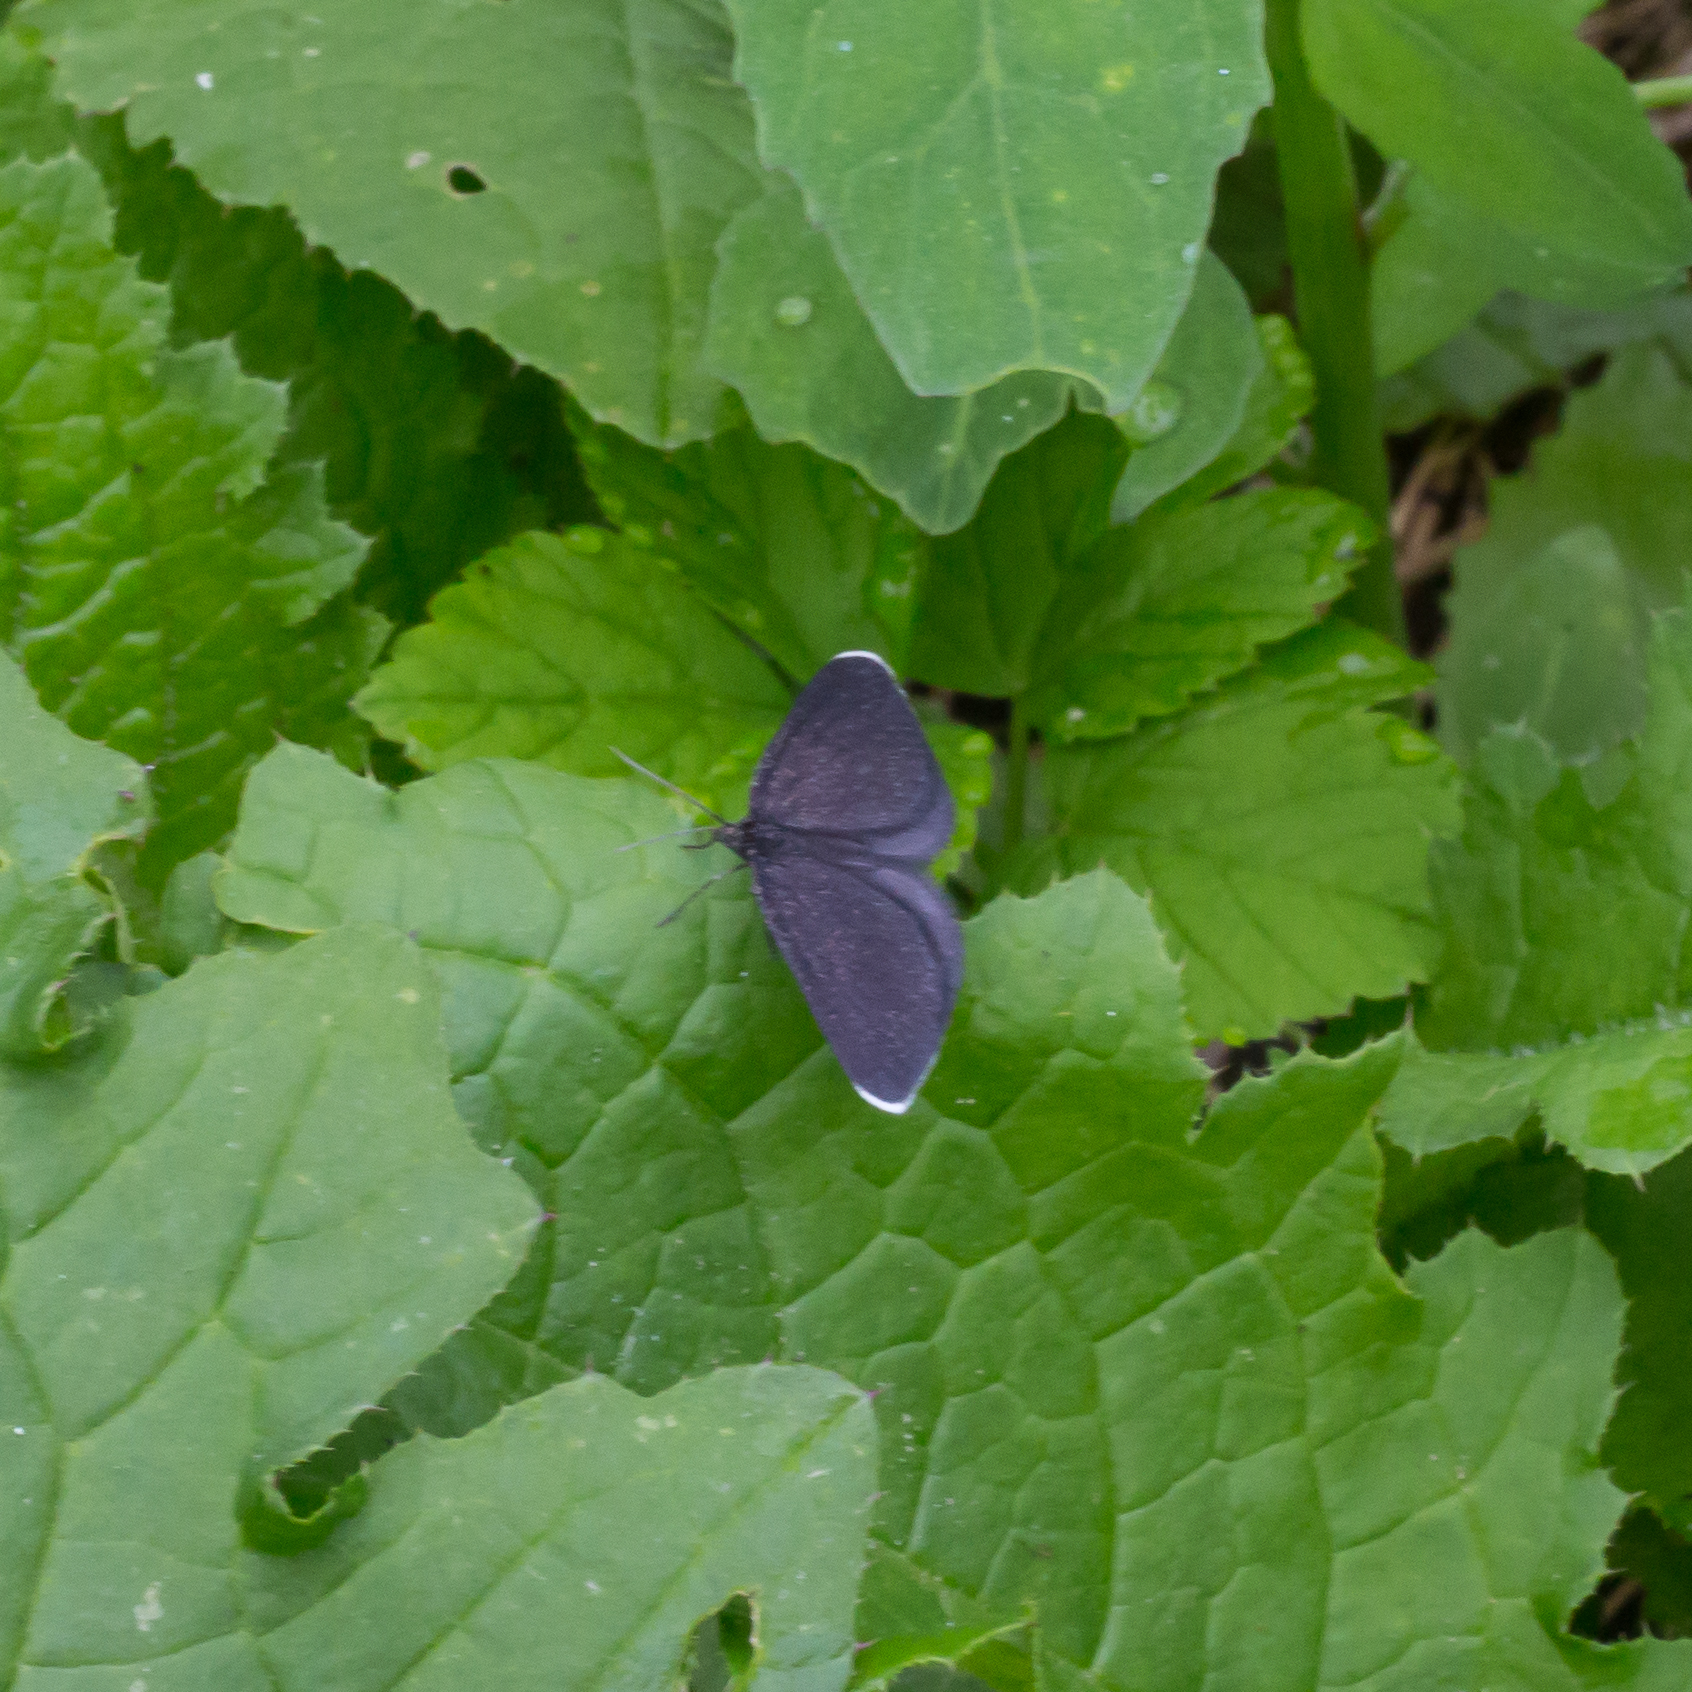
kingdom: Animalia
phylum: Arthropoda
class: Insecta
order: Lepidoptera
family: Geometridae
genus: Odezia
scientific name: Odezia atrata
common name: Chimney sweeper
